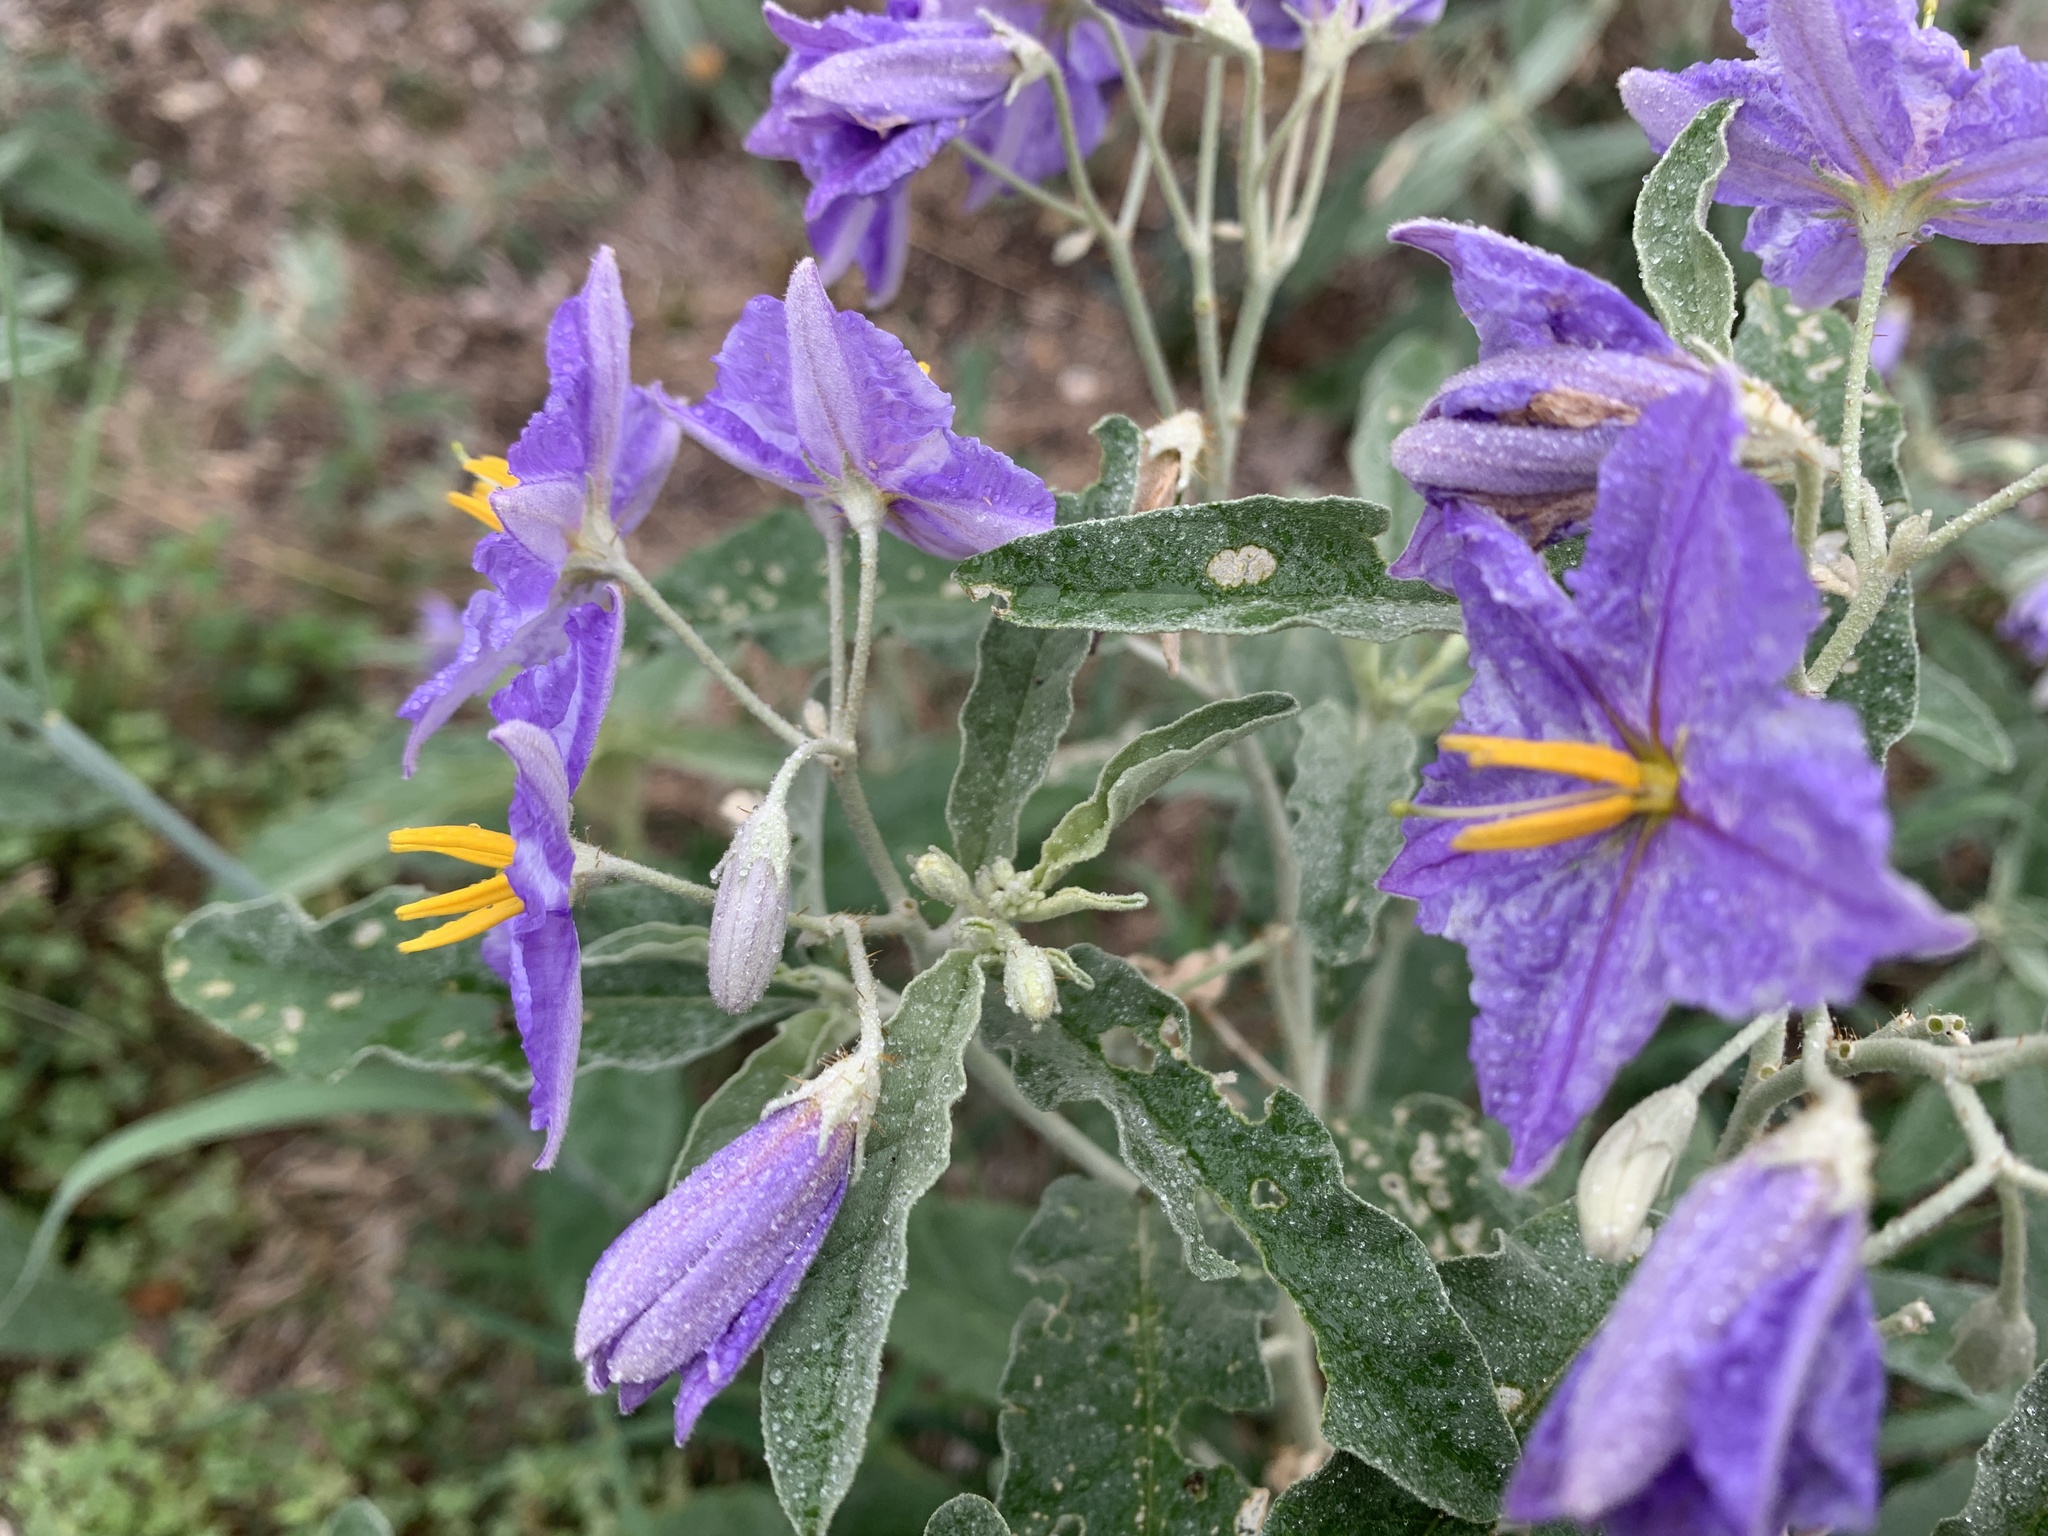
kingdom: Plantae
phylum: Tracheophyta
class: Magnoliopsida
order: Solanales
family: Solanaceae
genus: Solanum
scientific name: Solanum elaeagnifolium
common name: Silverleaf nightshade
